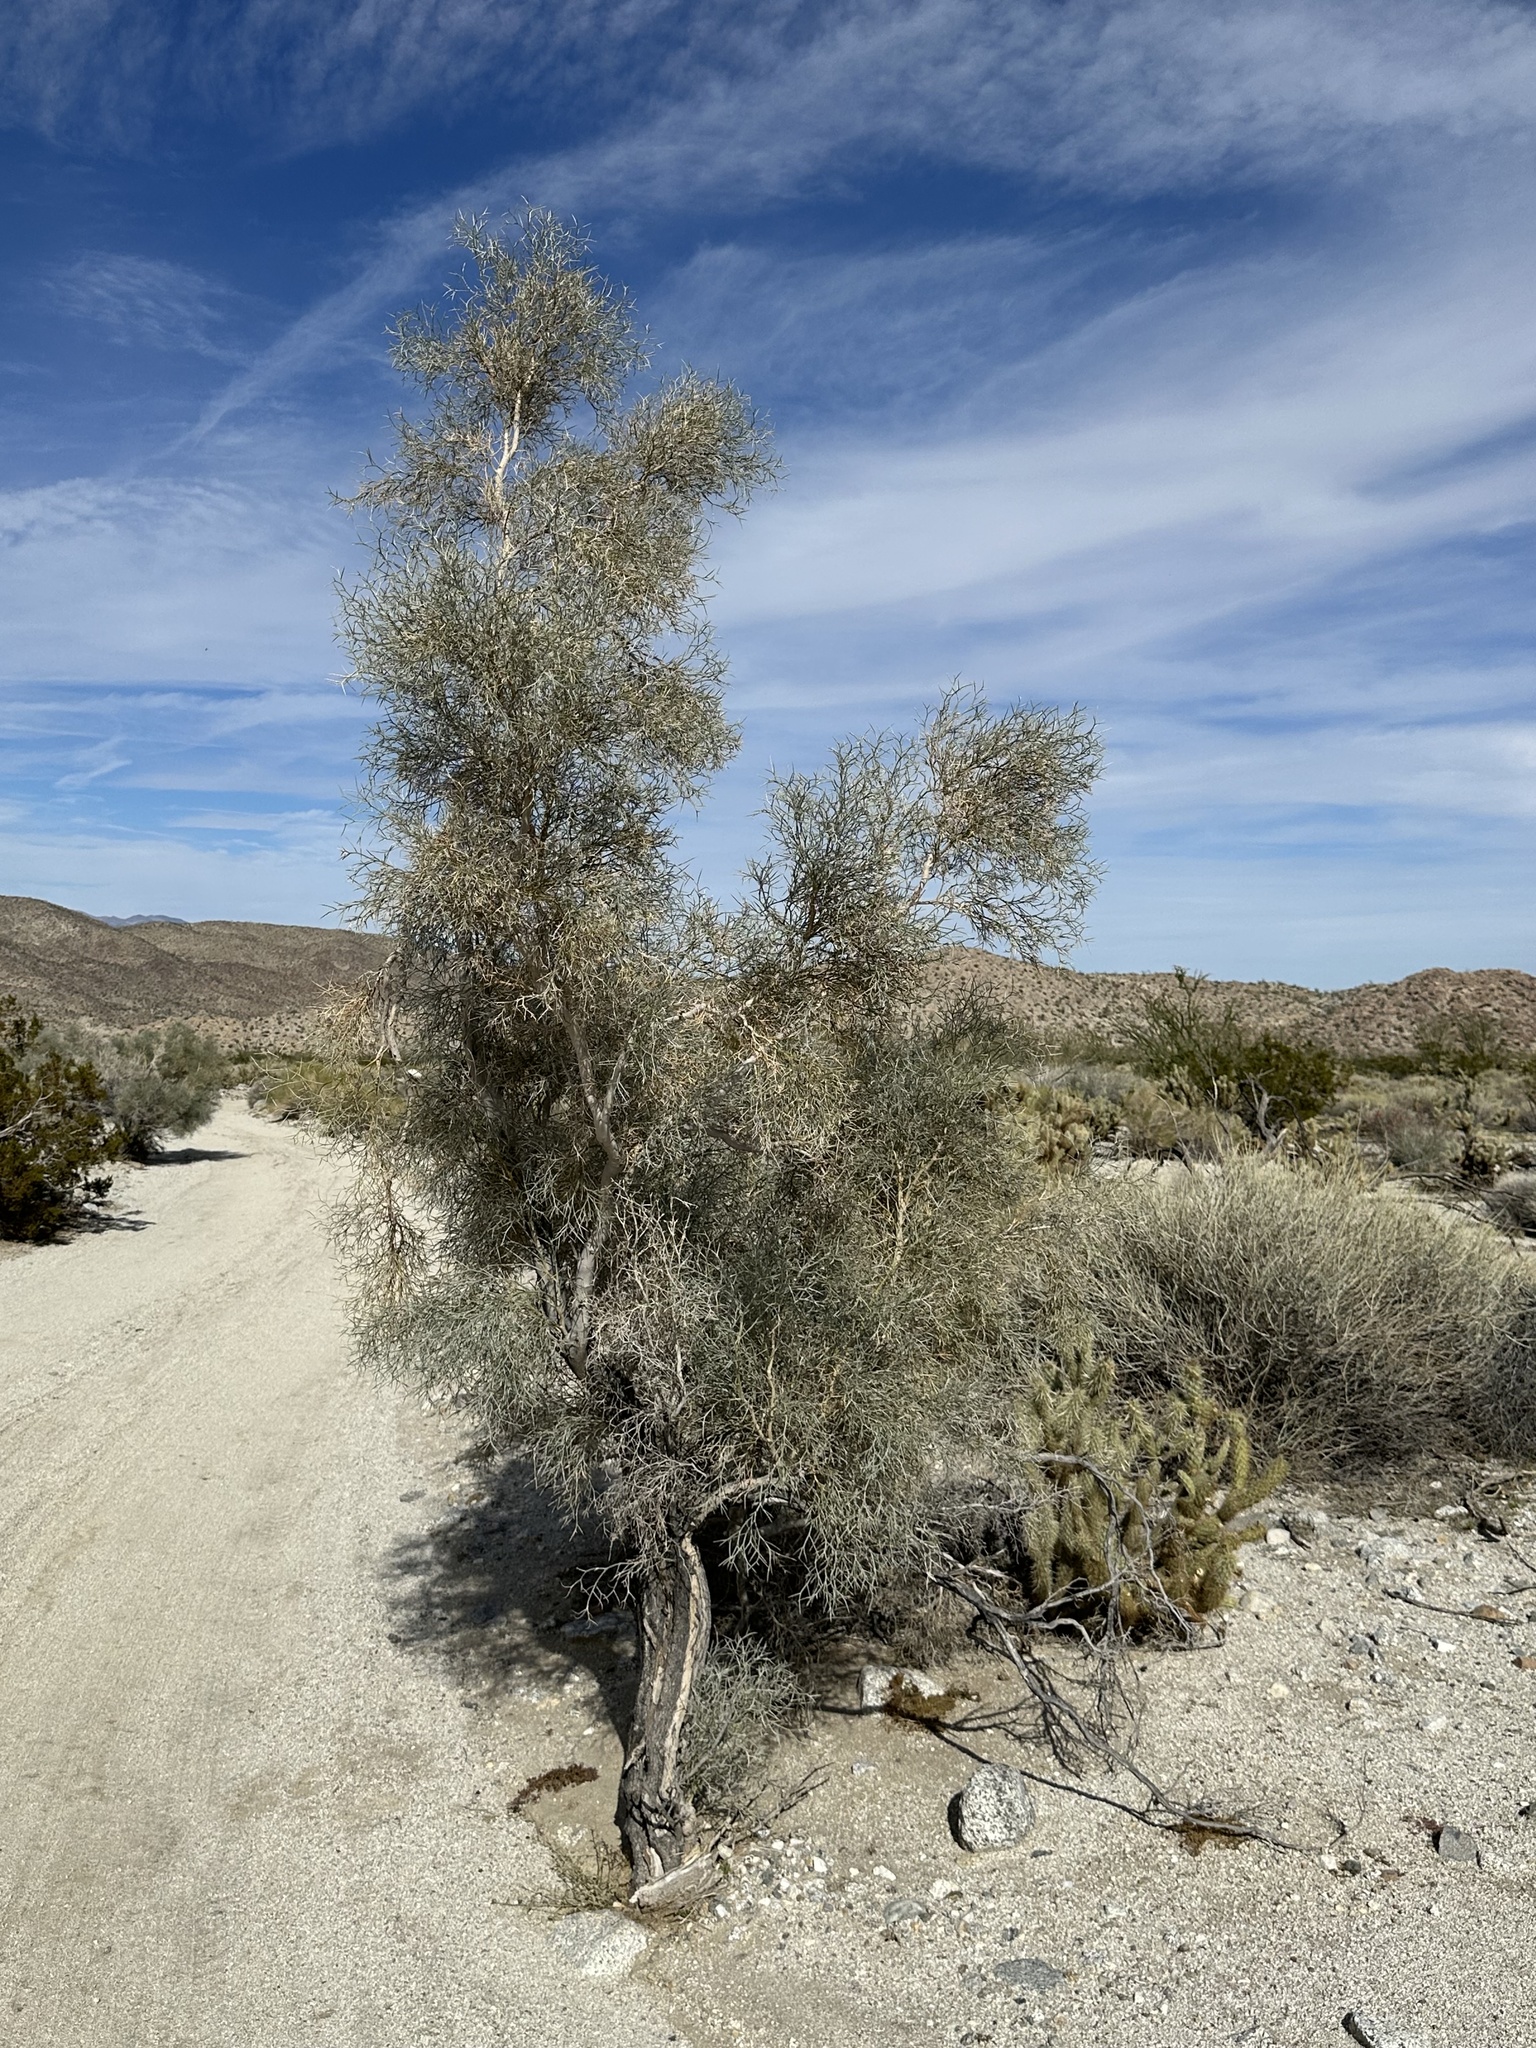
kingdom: Plantae
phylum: Tracheophyta
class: Magnoliopsida
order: Fabales
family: Fabaceae
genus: Psorothamnus
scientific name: Psorothamnus spinosus
